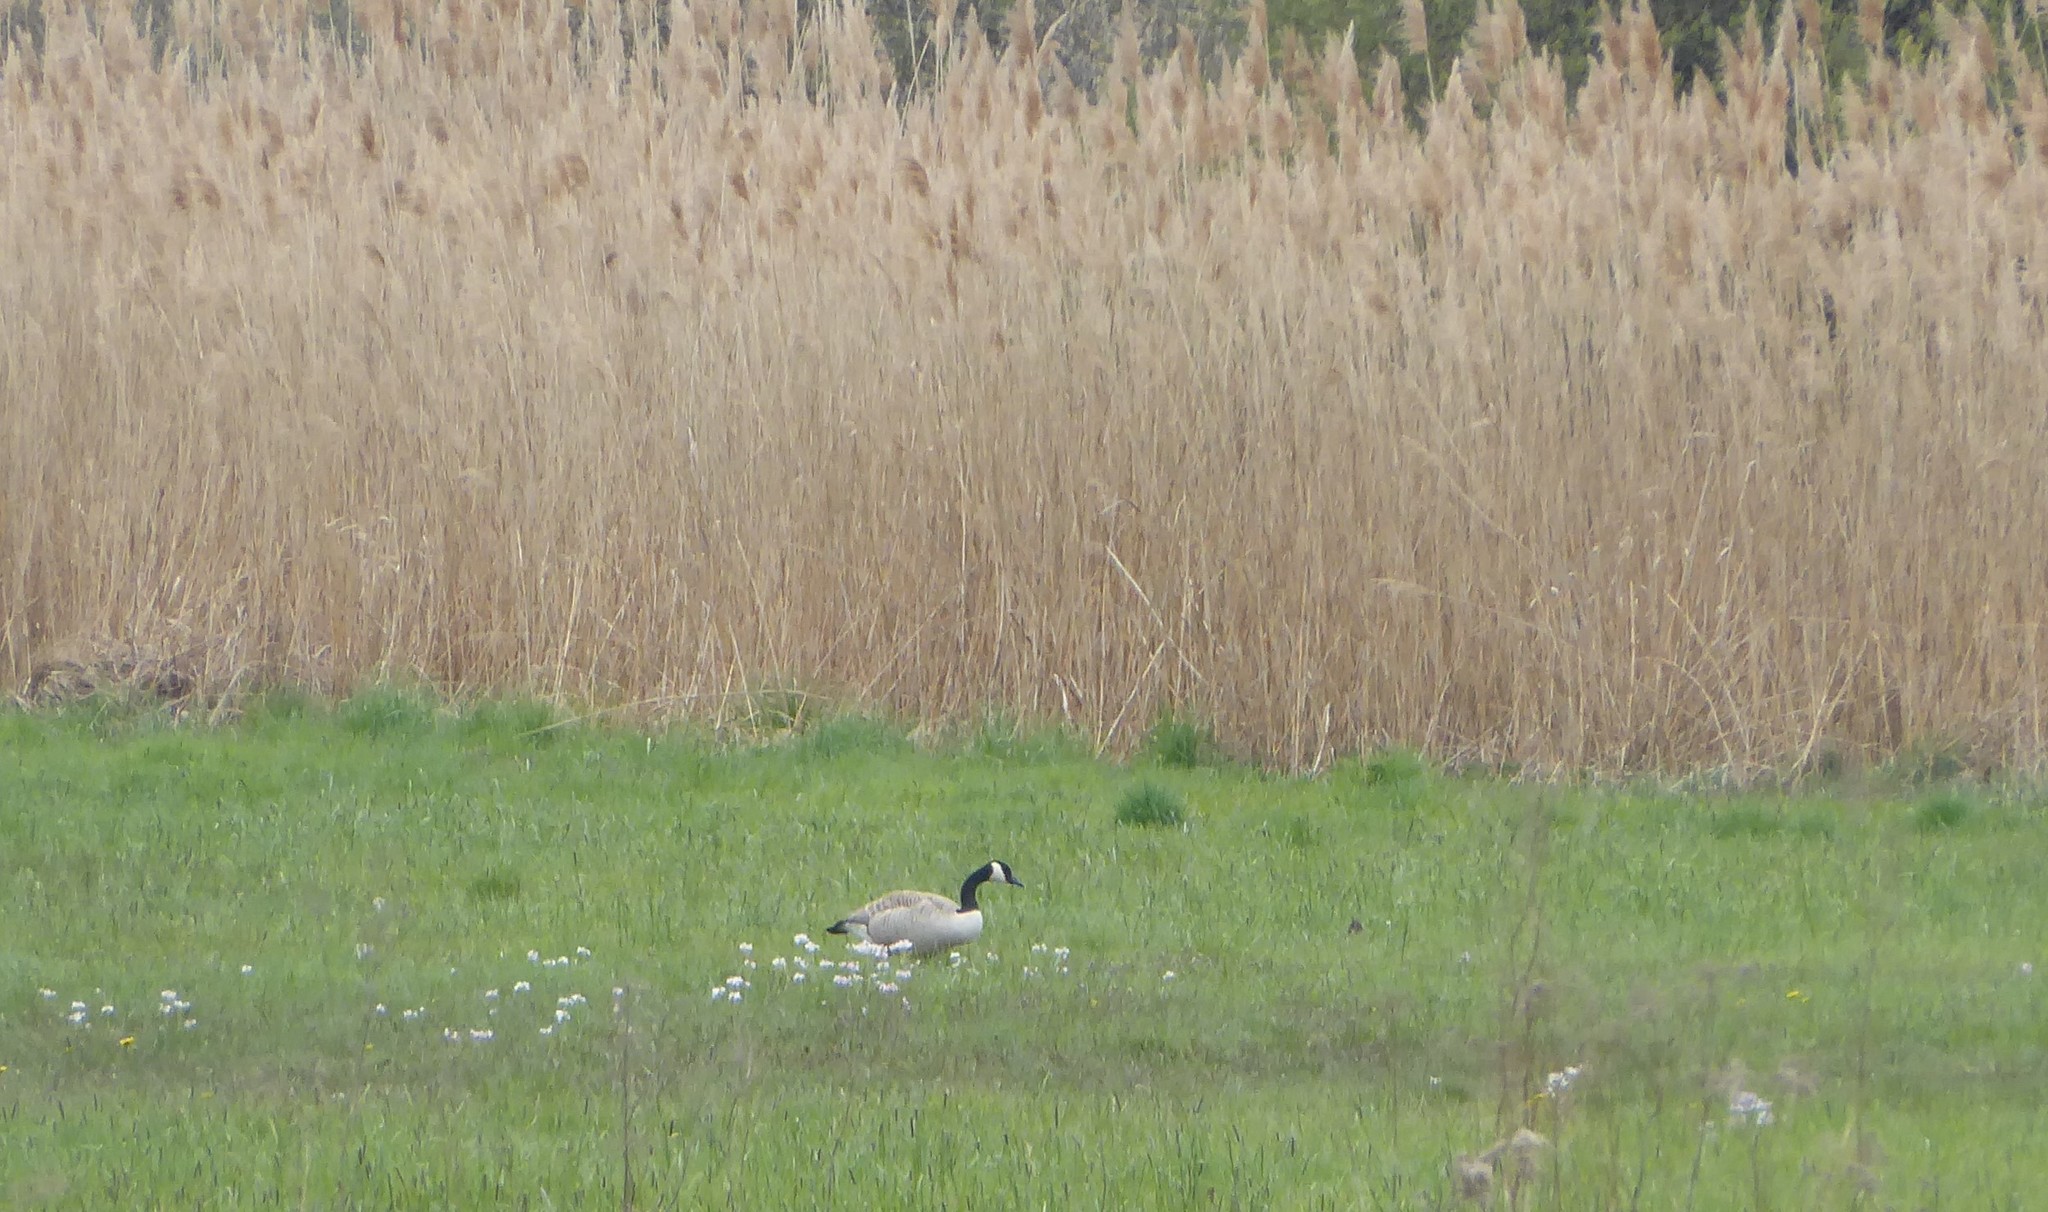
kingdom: Animalia
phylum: Chordata
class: Aves
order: Anseriformes
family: Anatidae
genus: Branta
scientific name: Branta canadensis
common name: Canada goose
